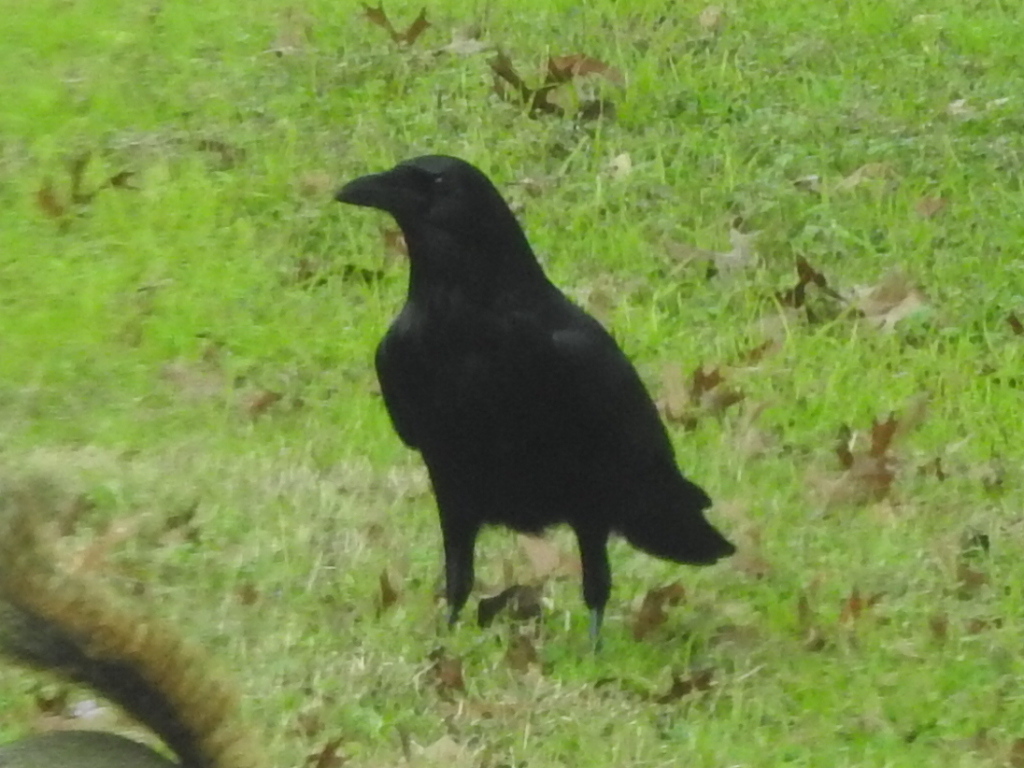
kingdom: Animalia
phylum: Chordata
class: Aves
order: Passeriformes
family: Corvidae
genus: Corvus
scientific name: Corvus brachyrhynchos
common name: American crow
